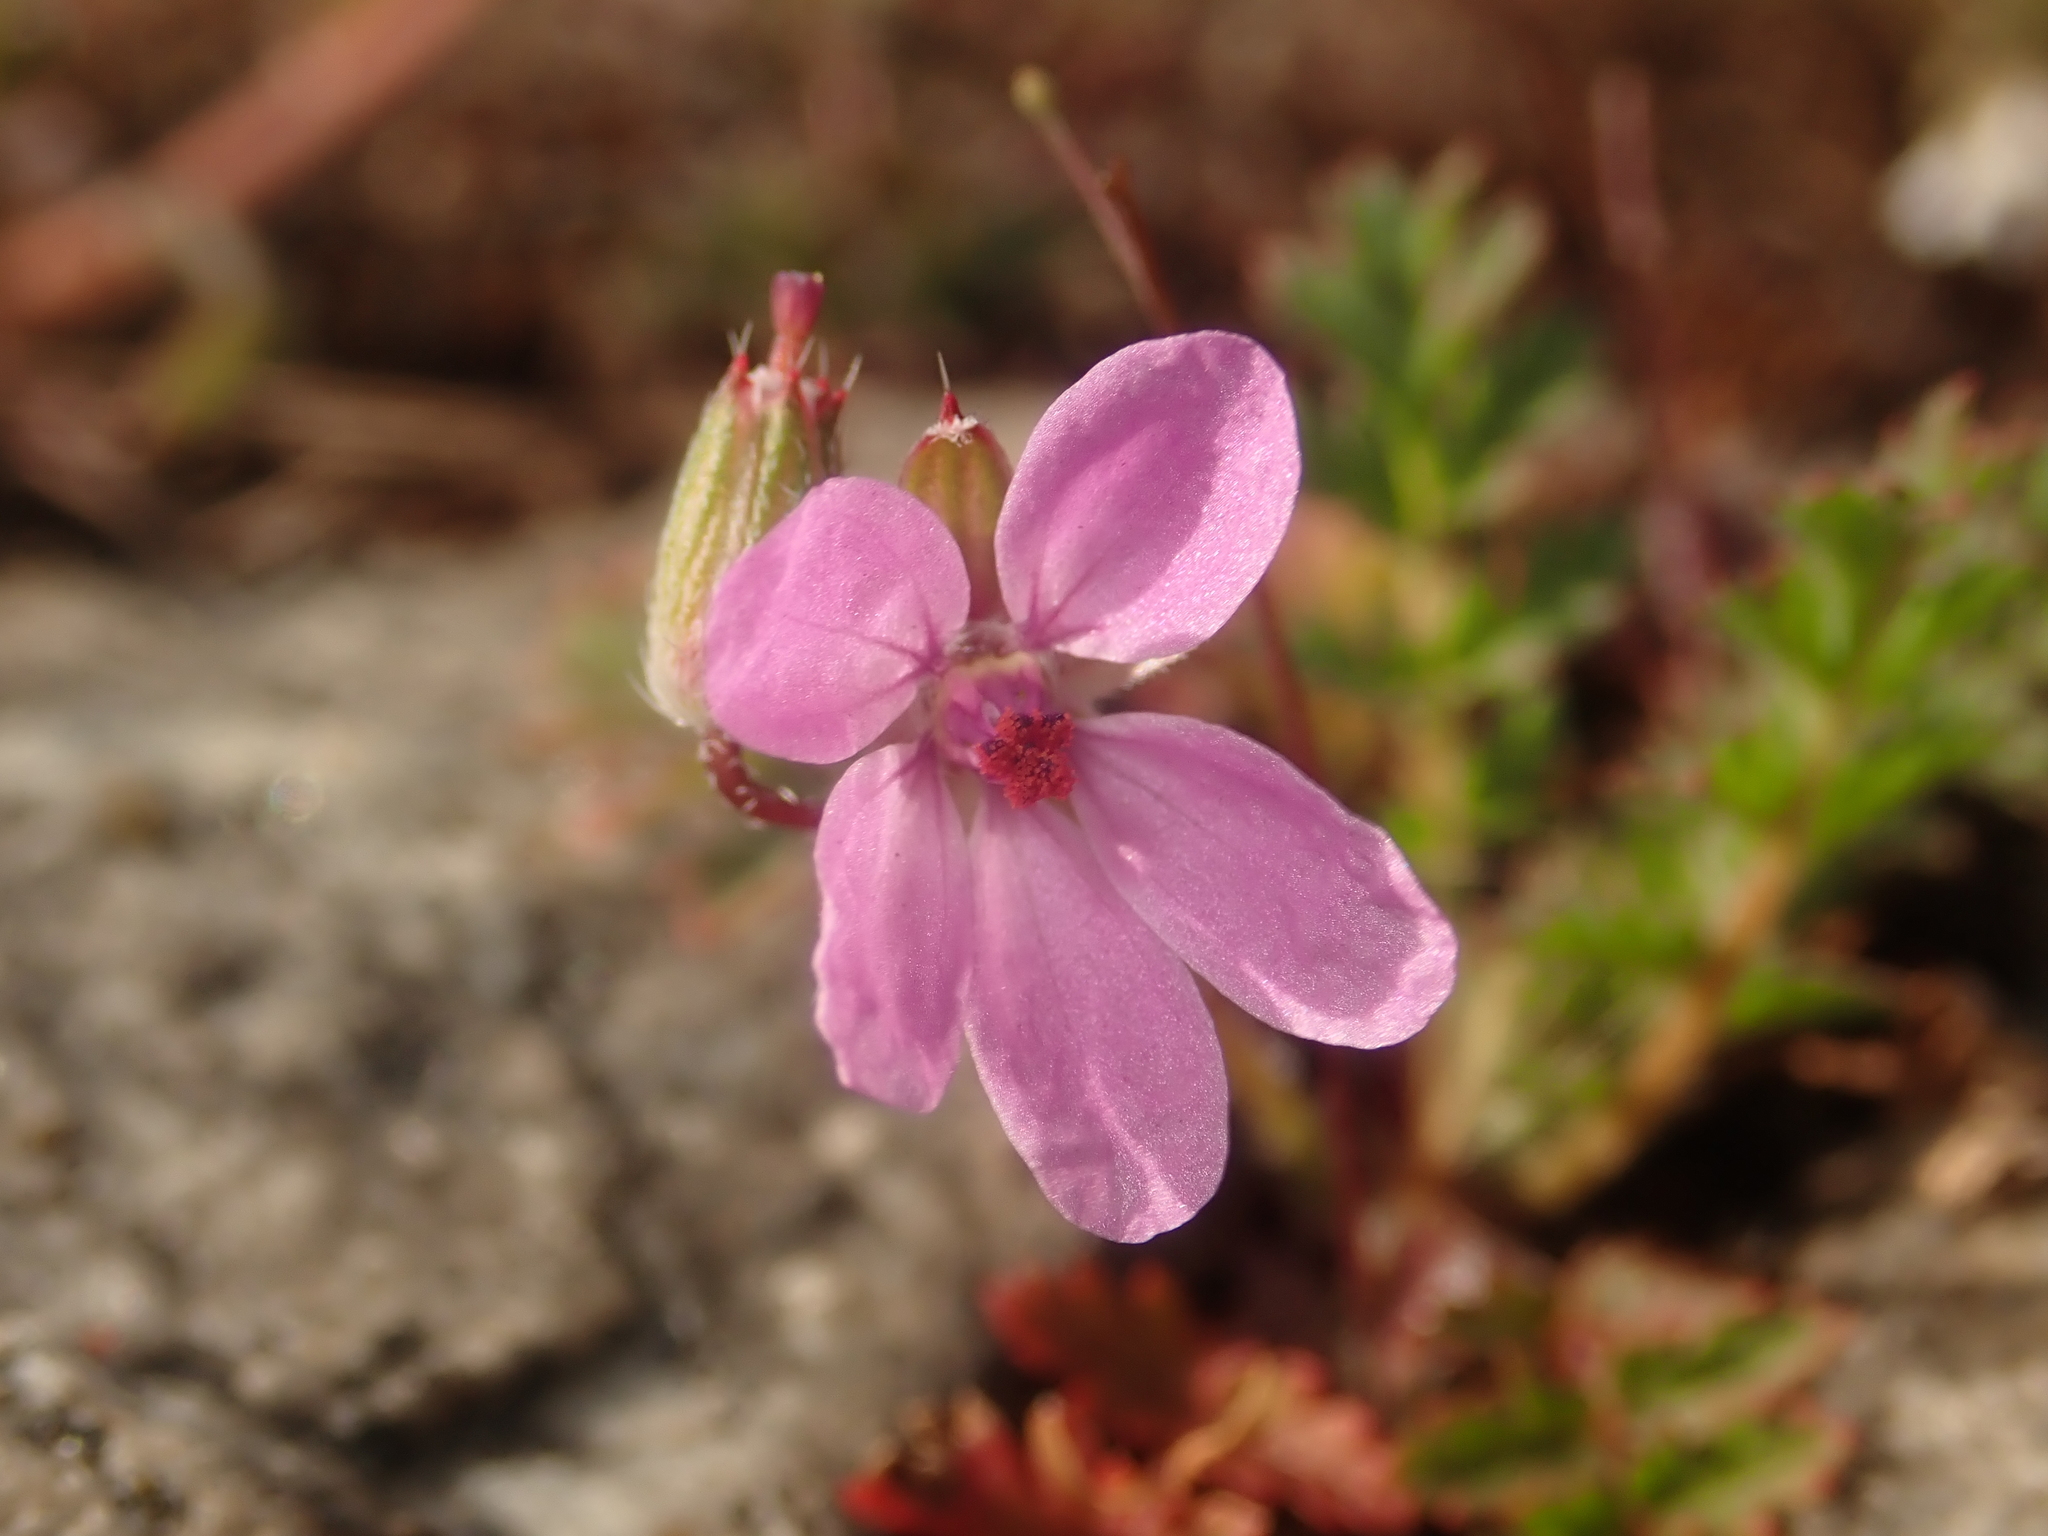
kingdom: Plantae
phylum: Tracheophyta
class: Magnoliopsida
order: Geraniales
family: Geraniaceae
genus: Erodium
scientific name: Erodium cicutarium
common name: Common stork's-bill
